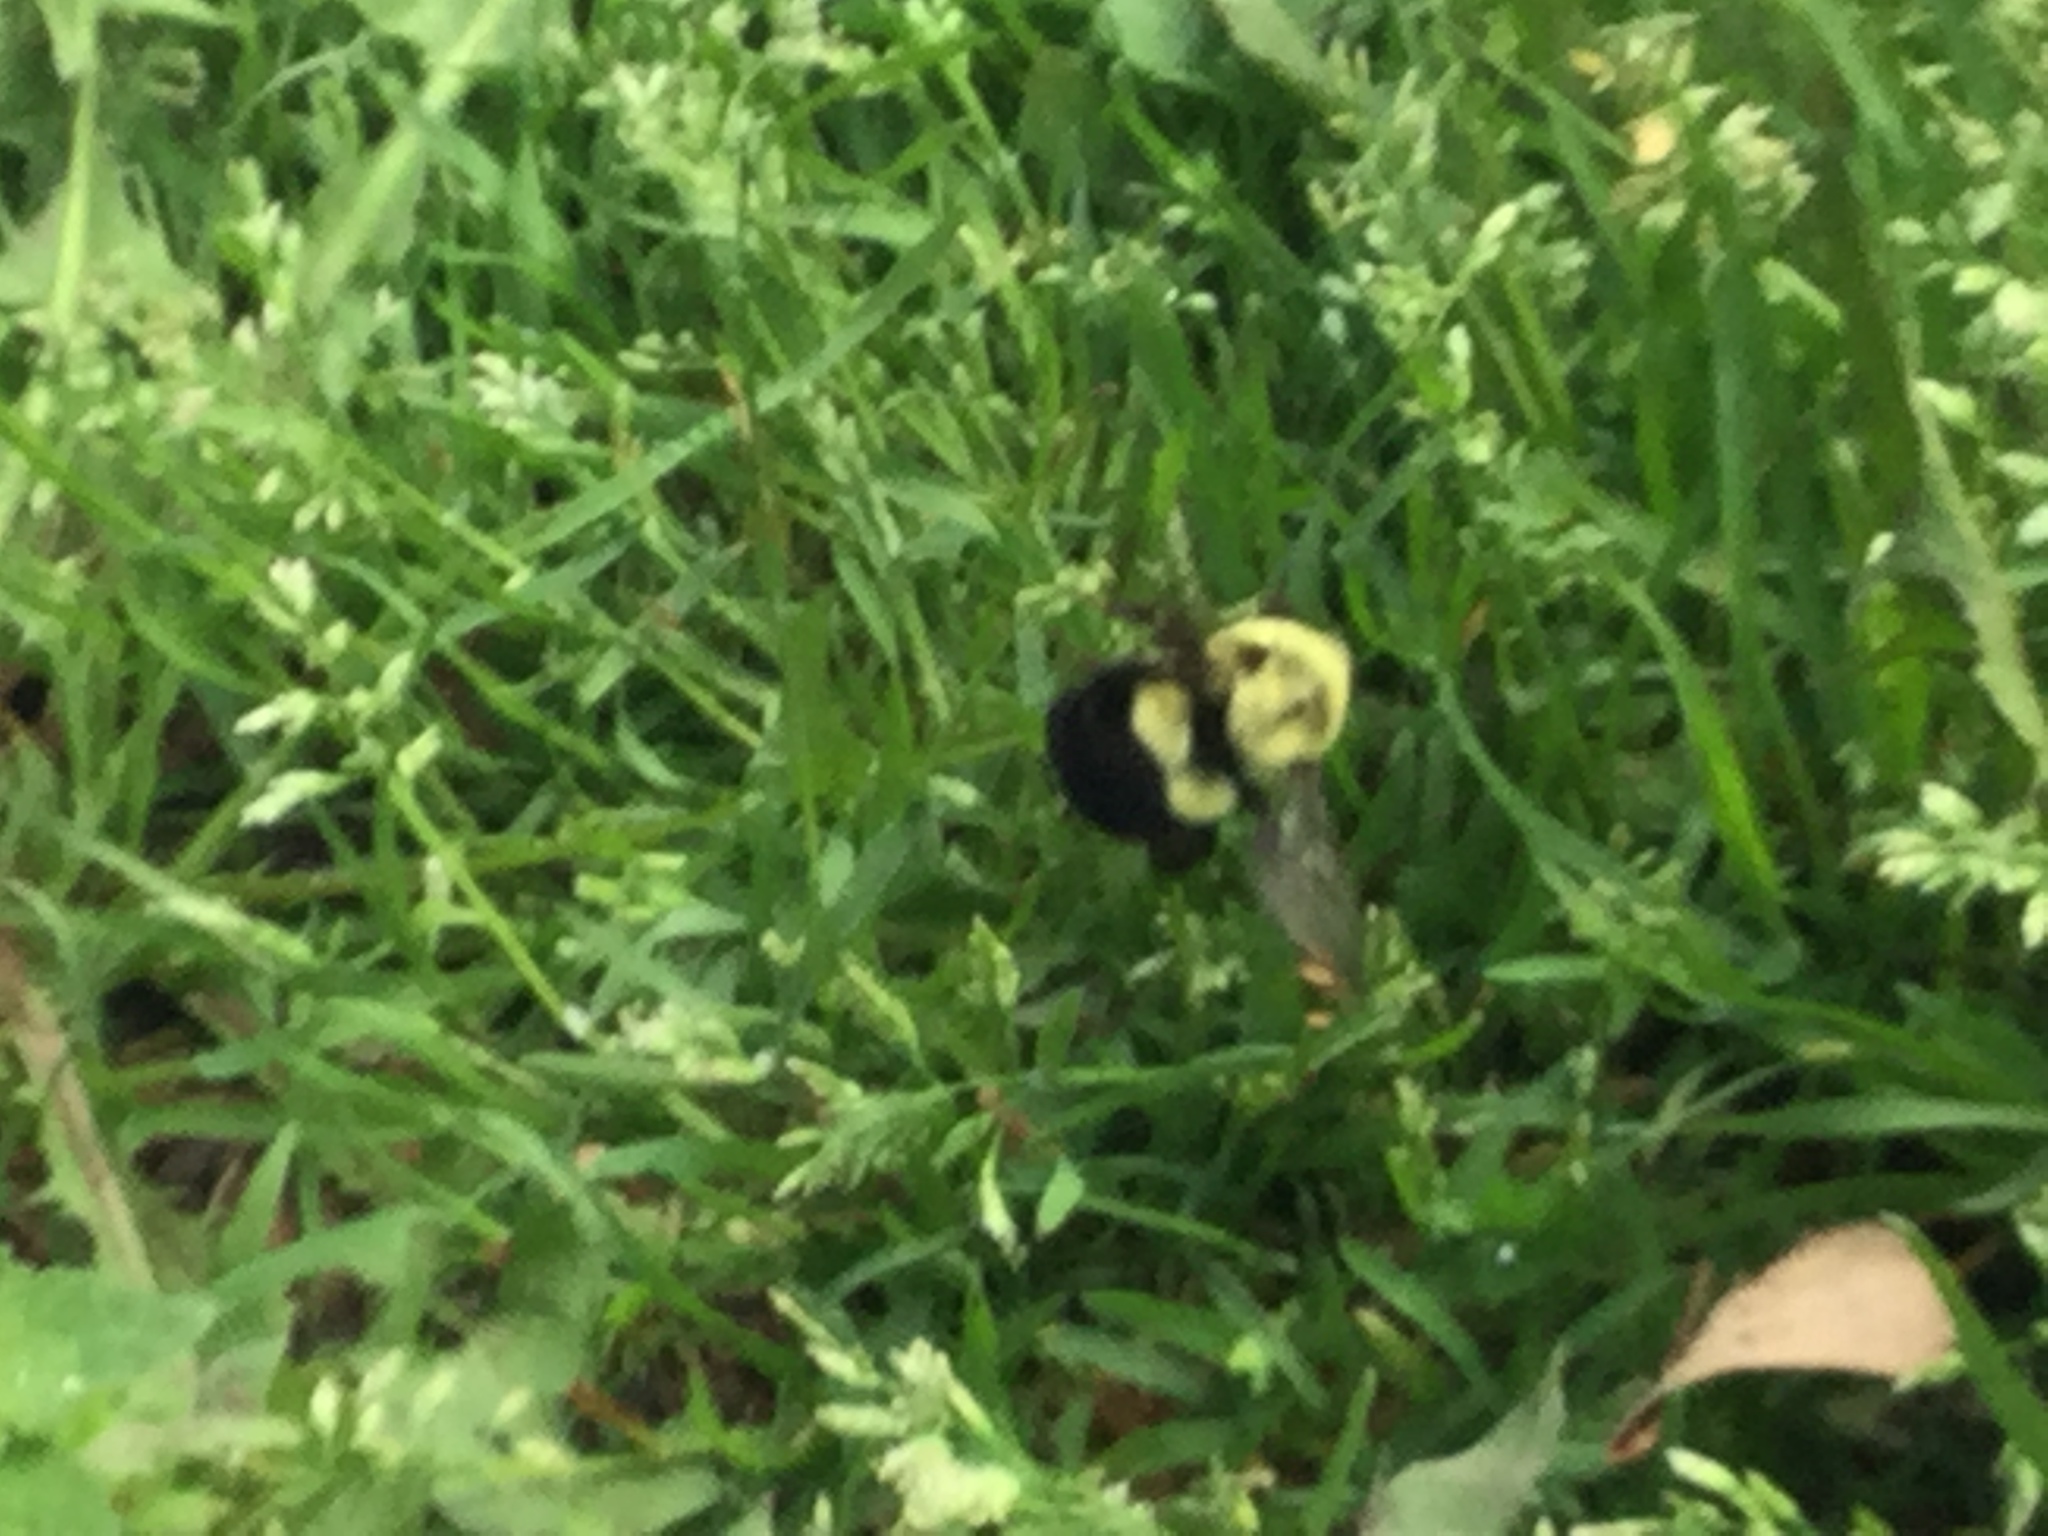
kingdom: Animalia
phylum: Arthropoda
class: Insecta
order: Hymenoptera
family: Apidae
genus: Bombus
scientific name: Bombus impatiens
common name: Common eastern bumble bee
